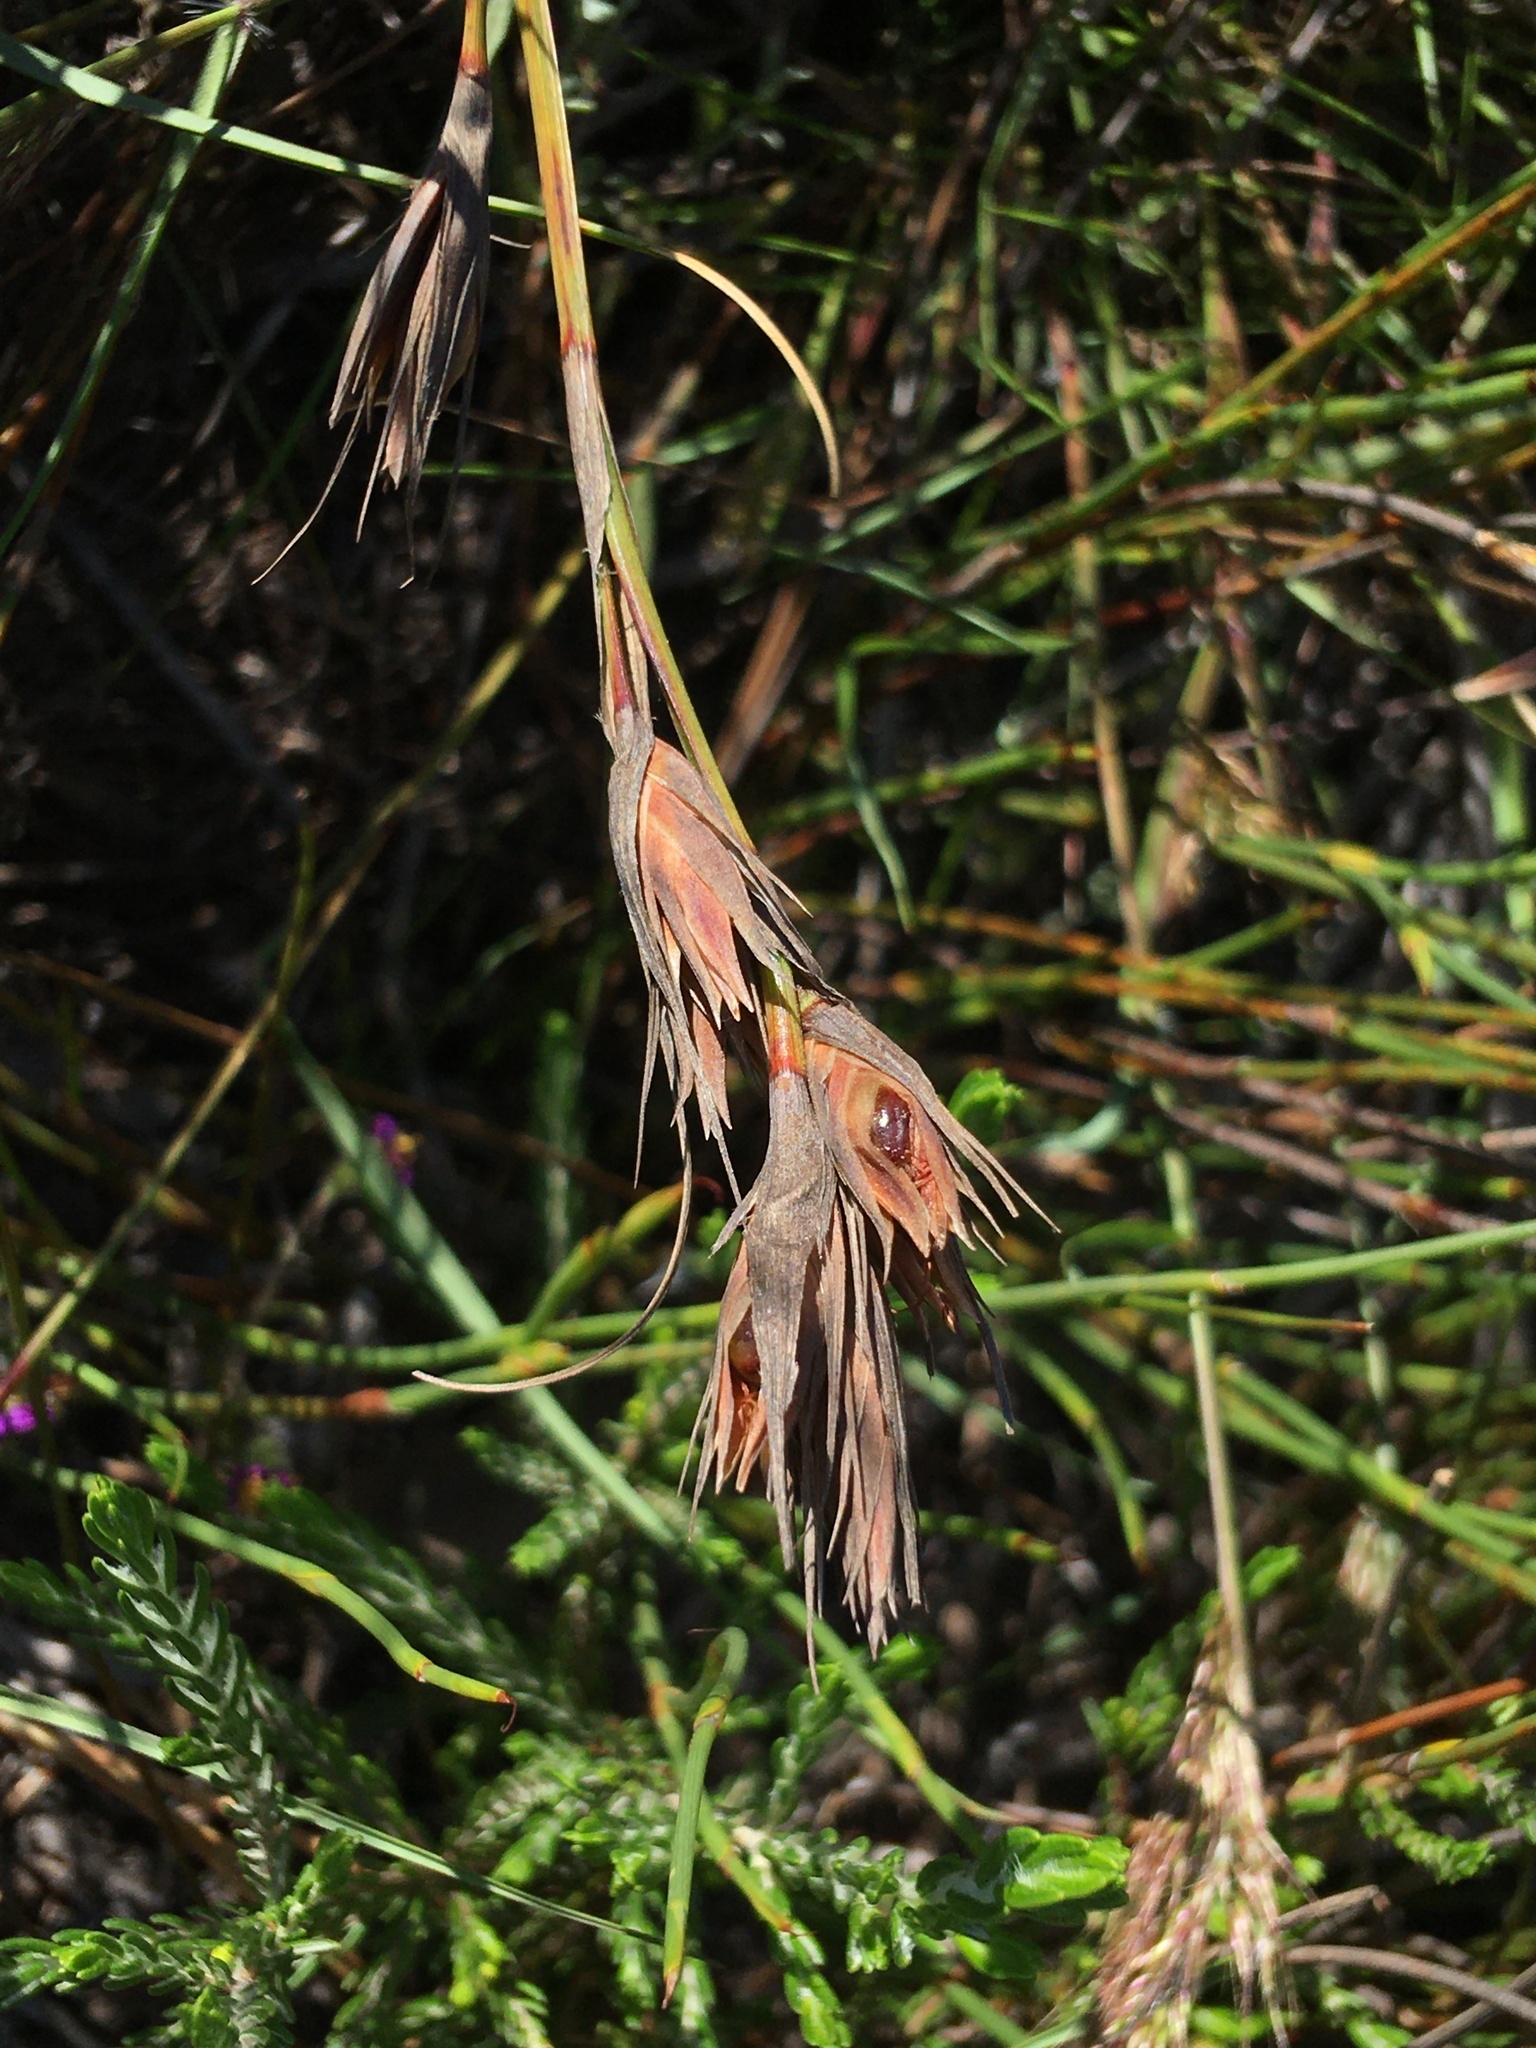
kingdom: Plantae
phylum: Tracheophyta
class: Liliopsida
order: Poales
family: Cyperaceae
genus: Tetraria
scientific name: Tetraria eximia
